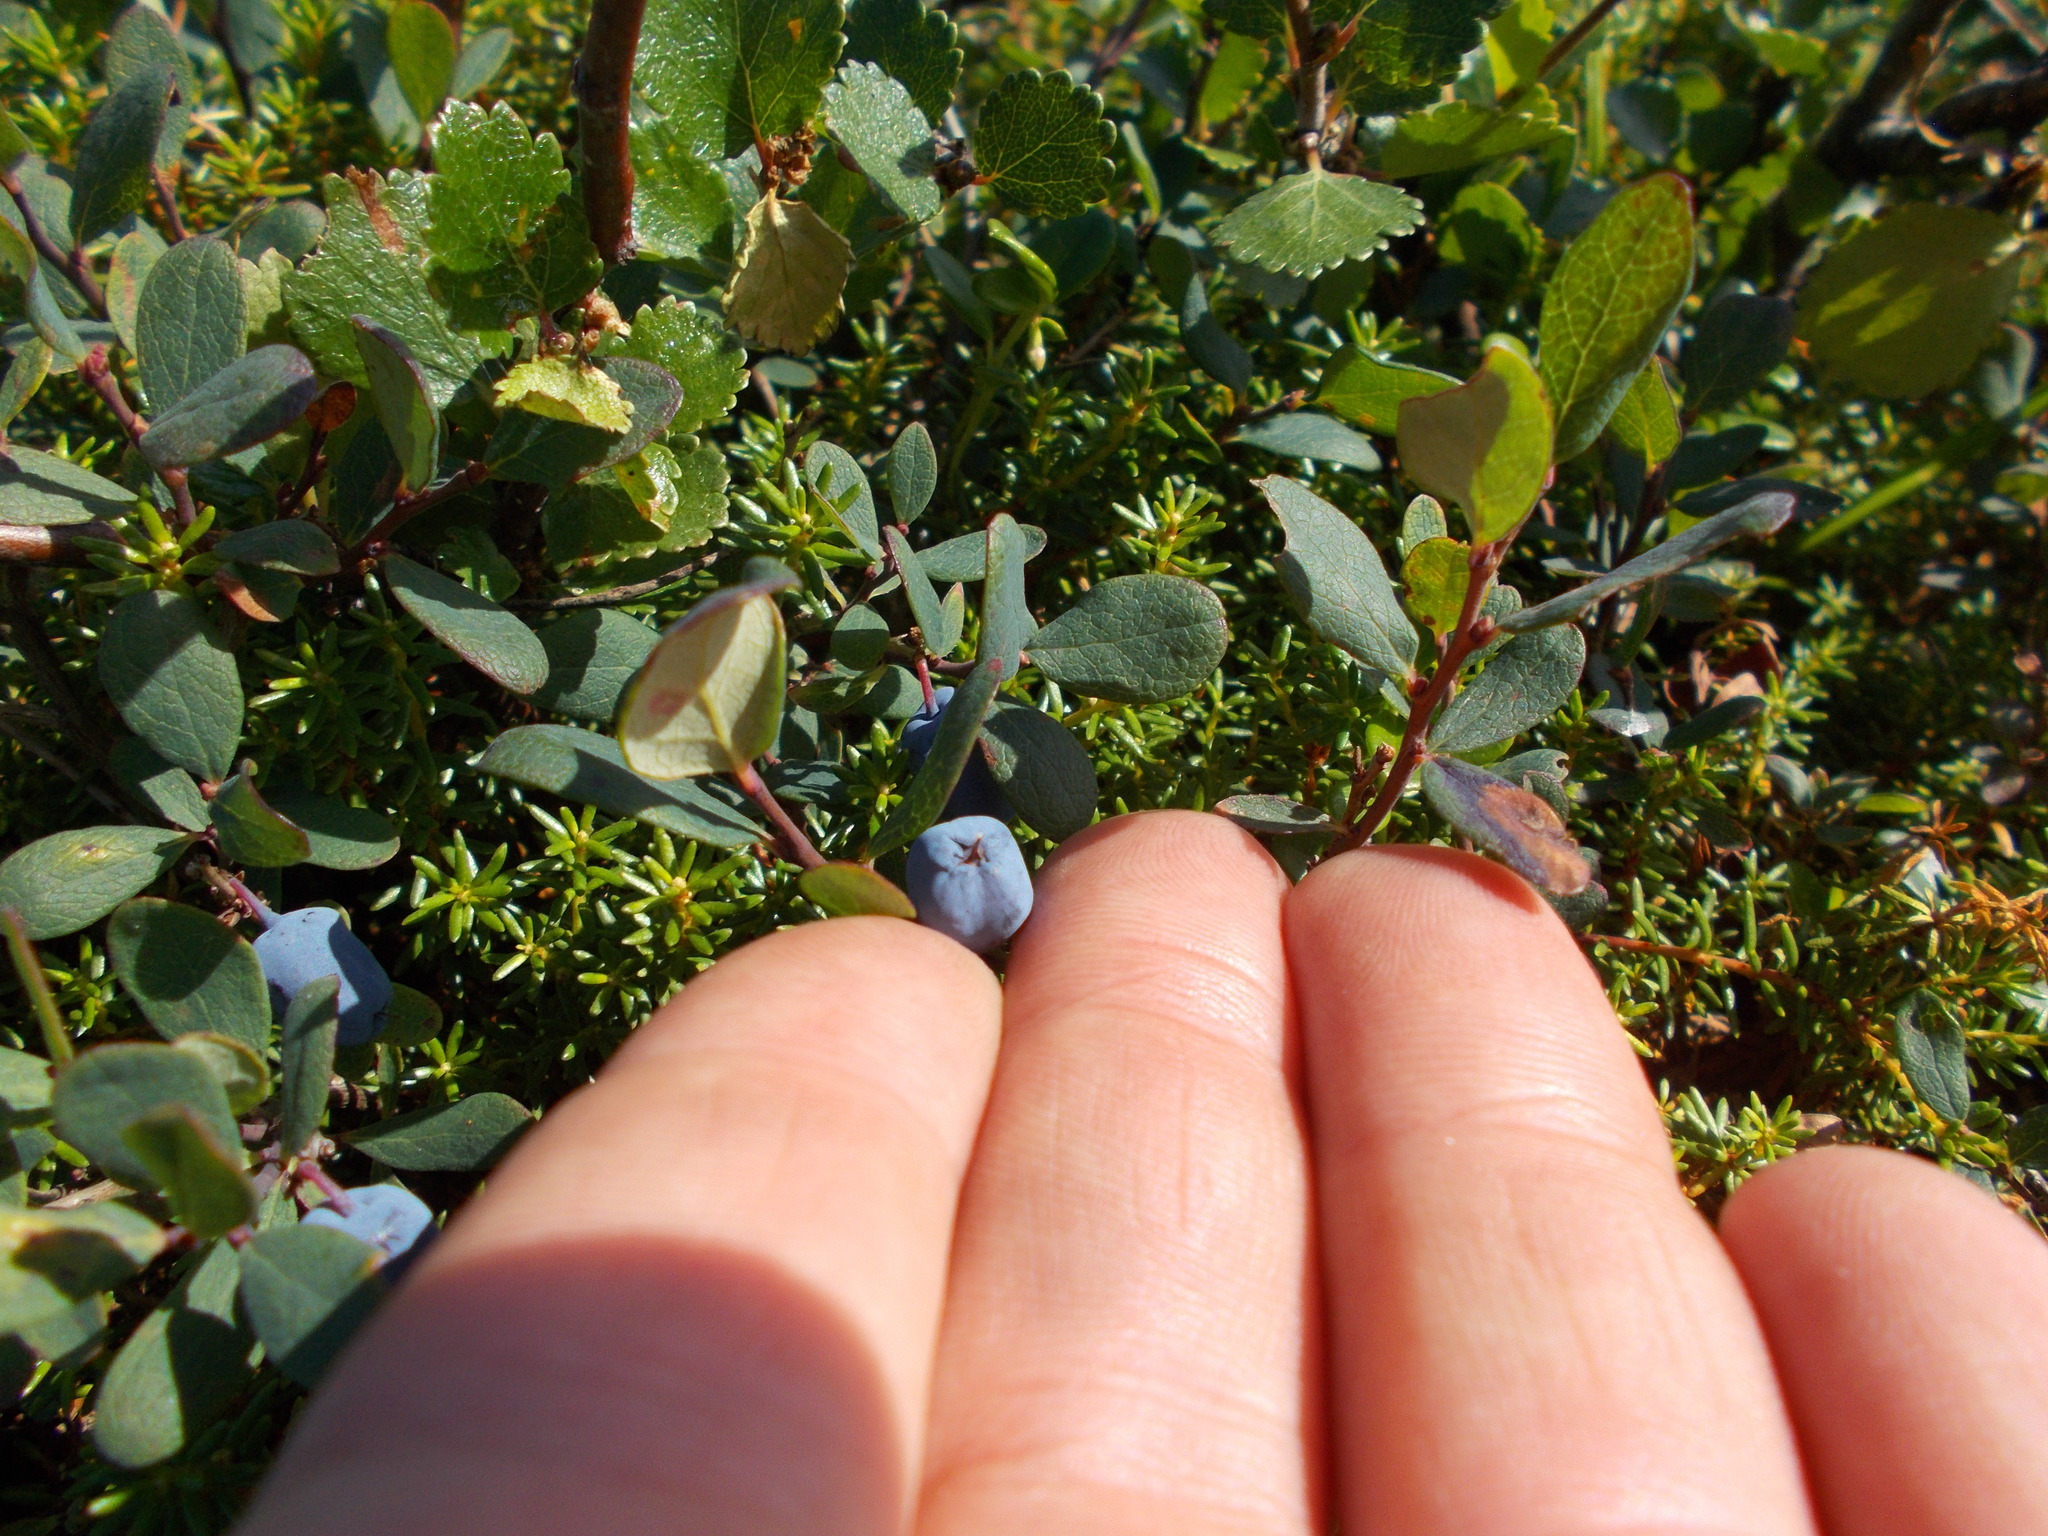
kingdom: Plantae
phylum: Tracheophyta
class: Magnoliopsida
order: Ericales
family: Ericaceae
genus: Vaccinium
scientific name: Vaccinium uliginosum
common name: Bog bilberry
